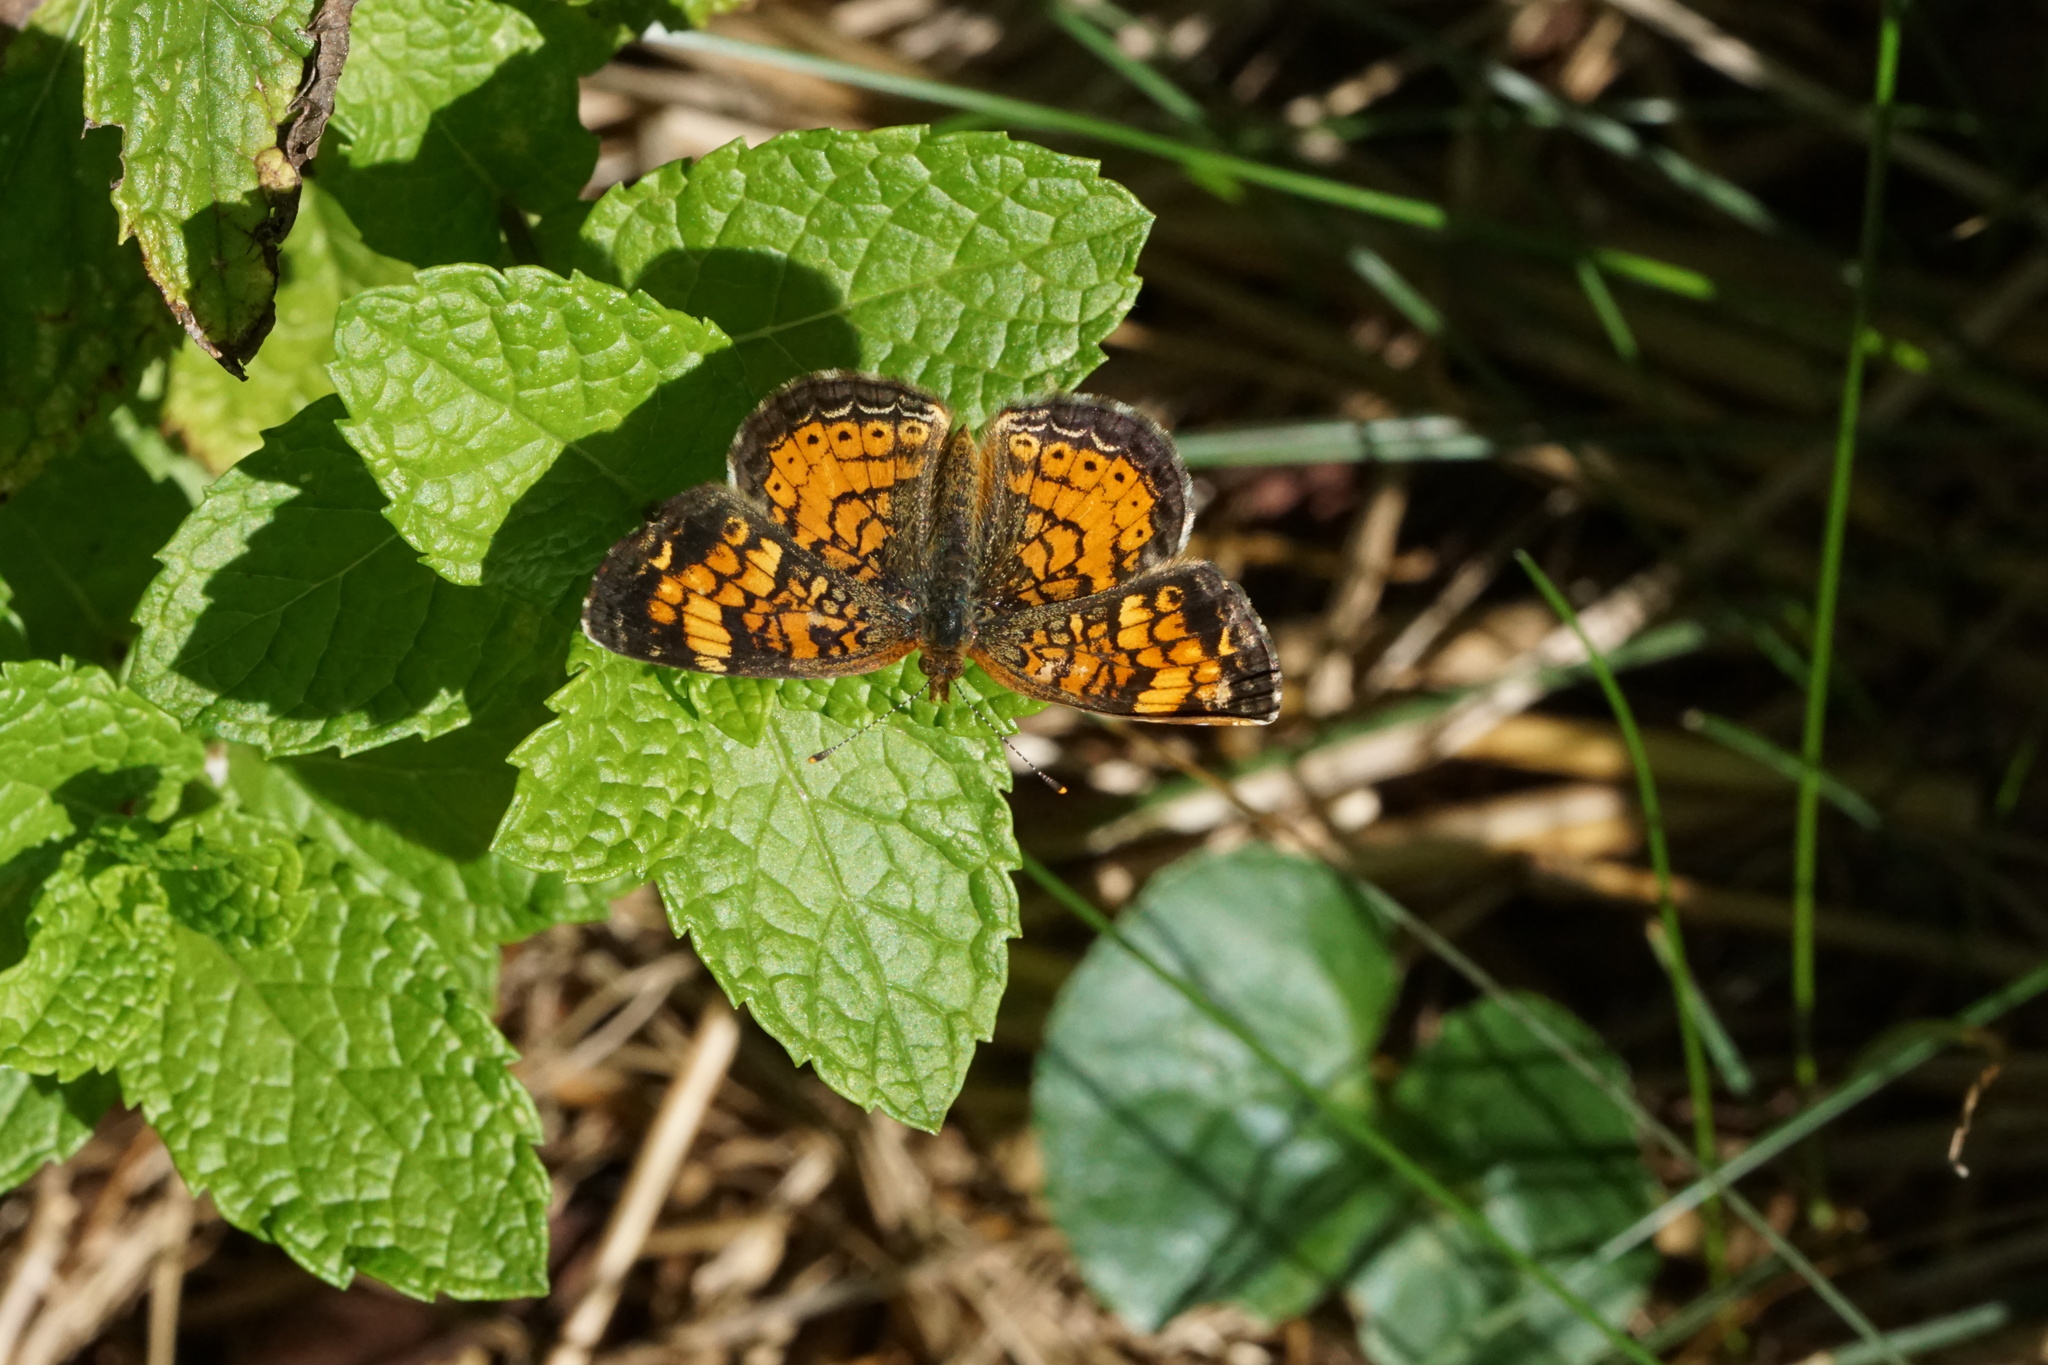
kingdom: Animalia
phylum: Arthropoda
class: Insecta
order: Lepidoptera
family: Nymphalidae
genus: Phyciodes
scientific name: Phyciodes tharos
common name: Pearl crescent
